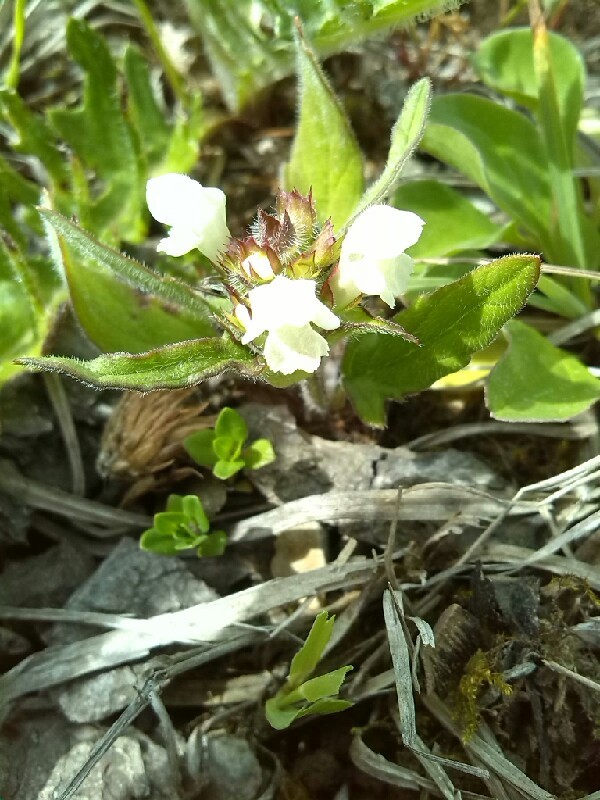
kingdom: Plantae
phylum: Tracheophyta
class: Magnoliopsida
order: Lamiales
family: Lamiaceae
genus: Stachys
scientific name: Stachys recta
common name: Perennial yellow-woundwort
